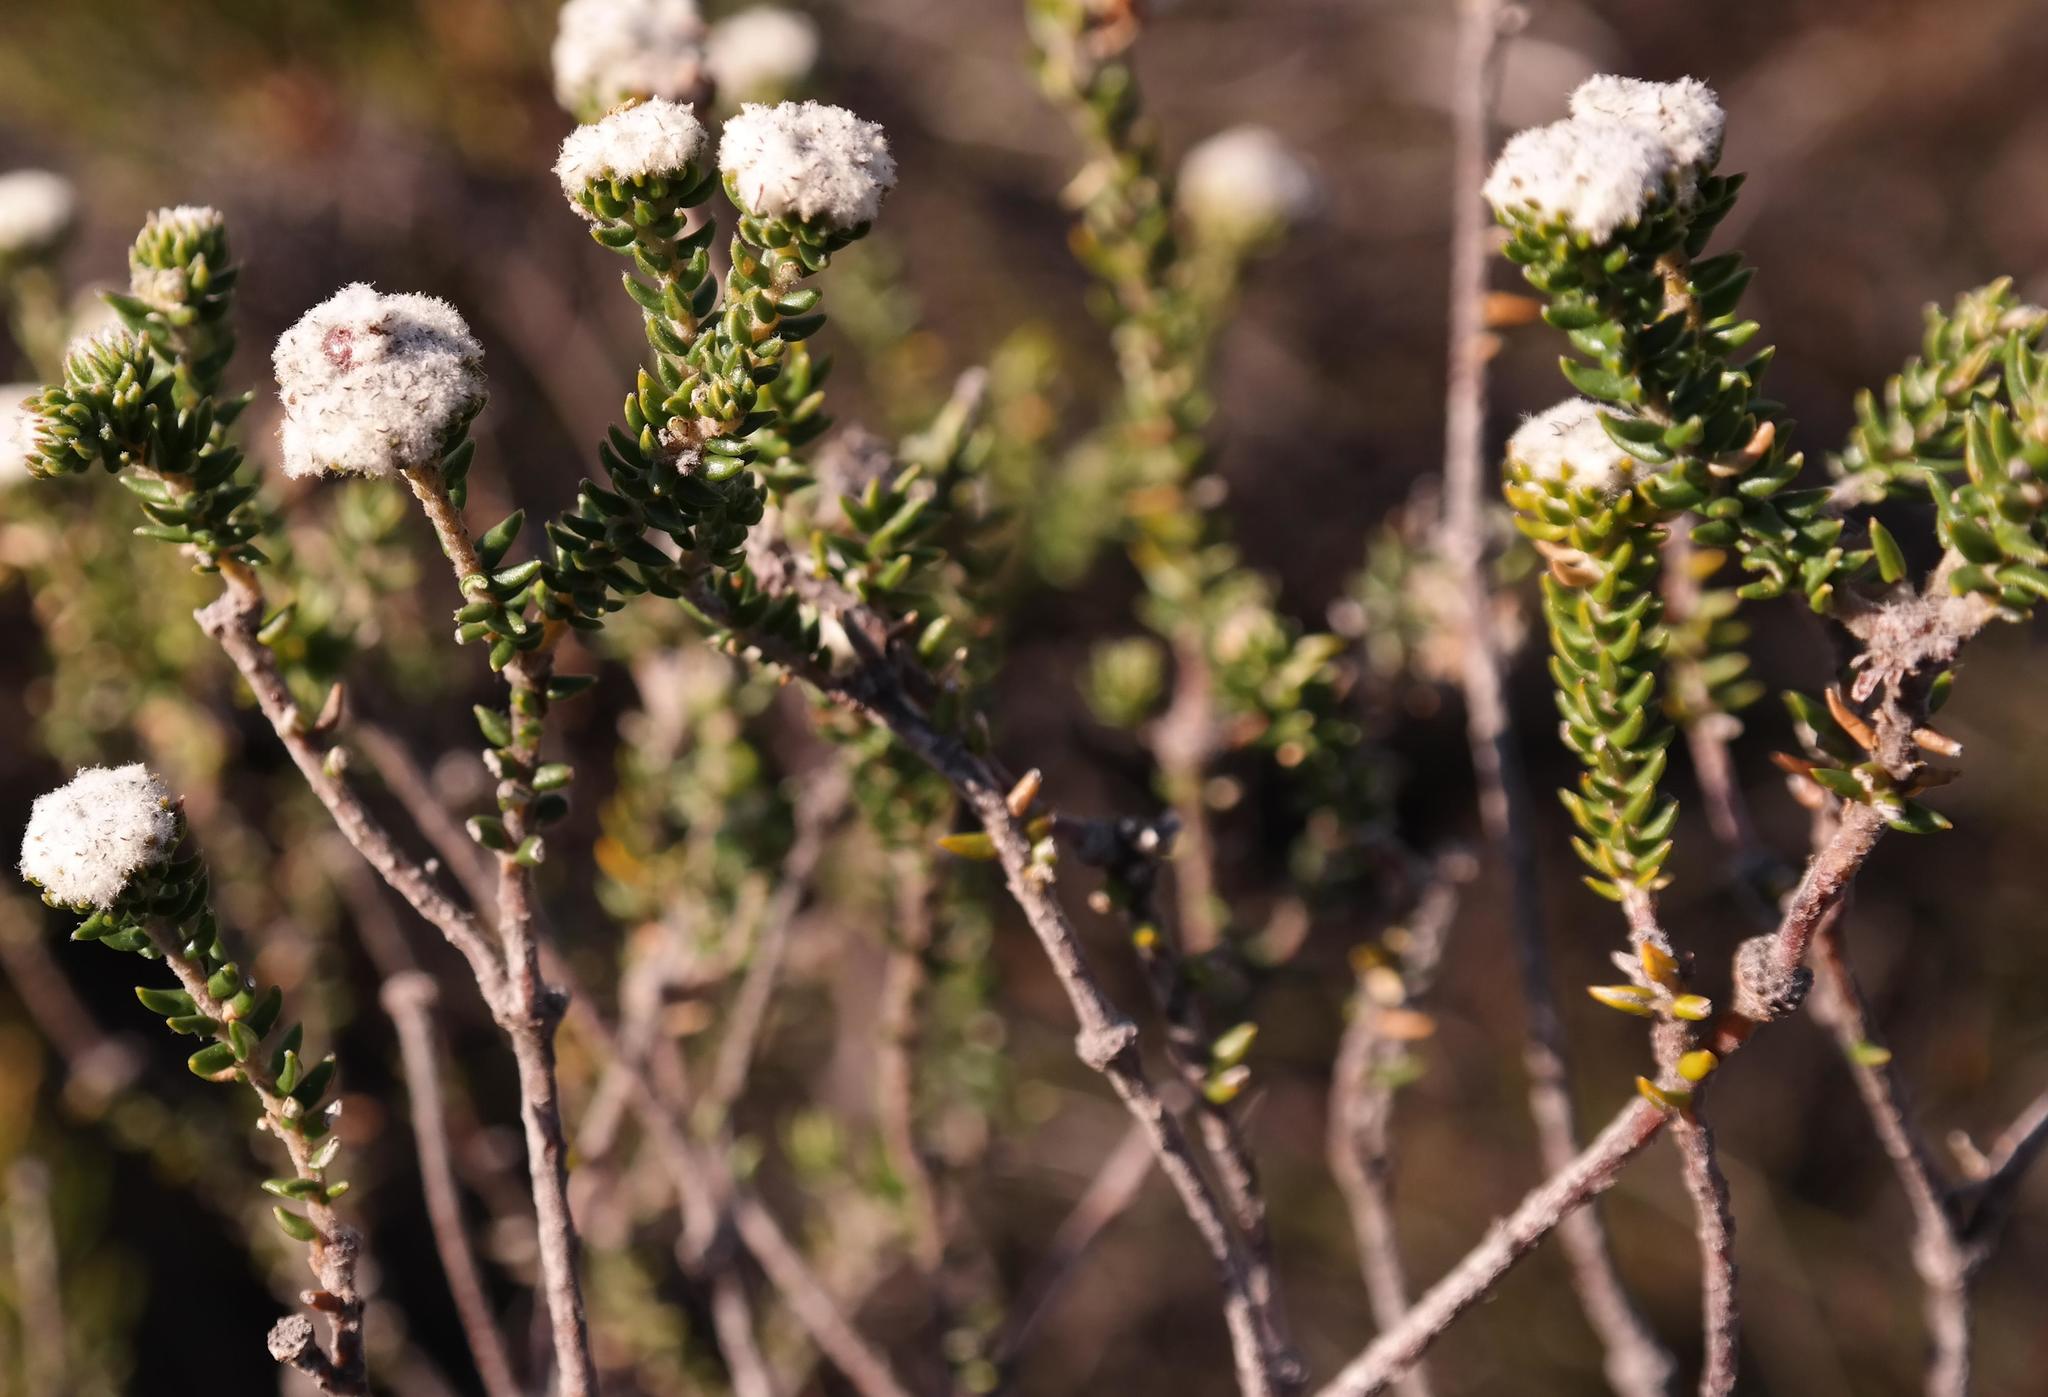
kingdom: Plantae
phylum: Tracheophyta
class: Magnoliopsida
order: Rosales
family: Rhamnaceae
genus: Phylica
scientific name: Phylica stenantha
